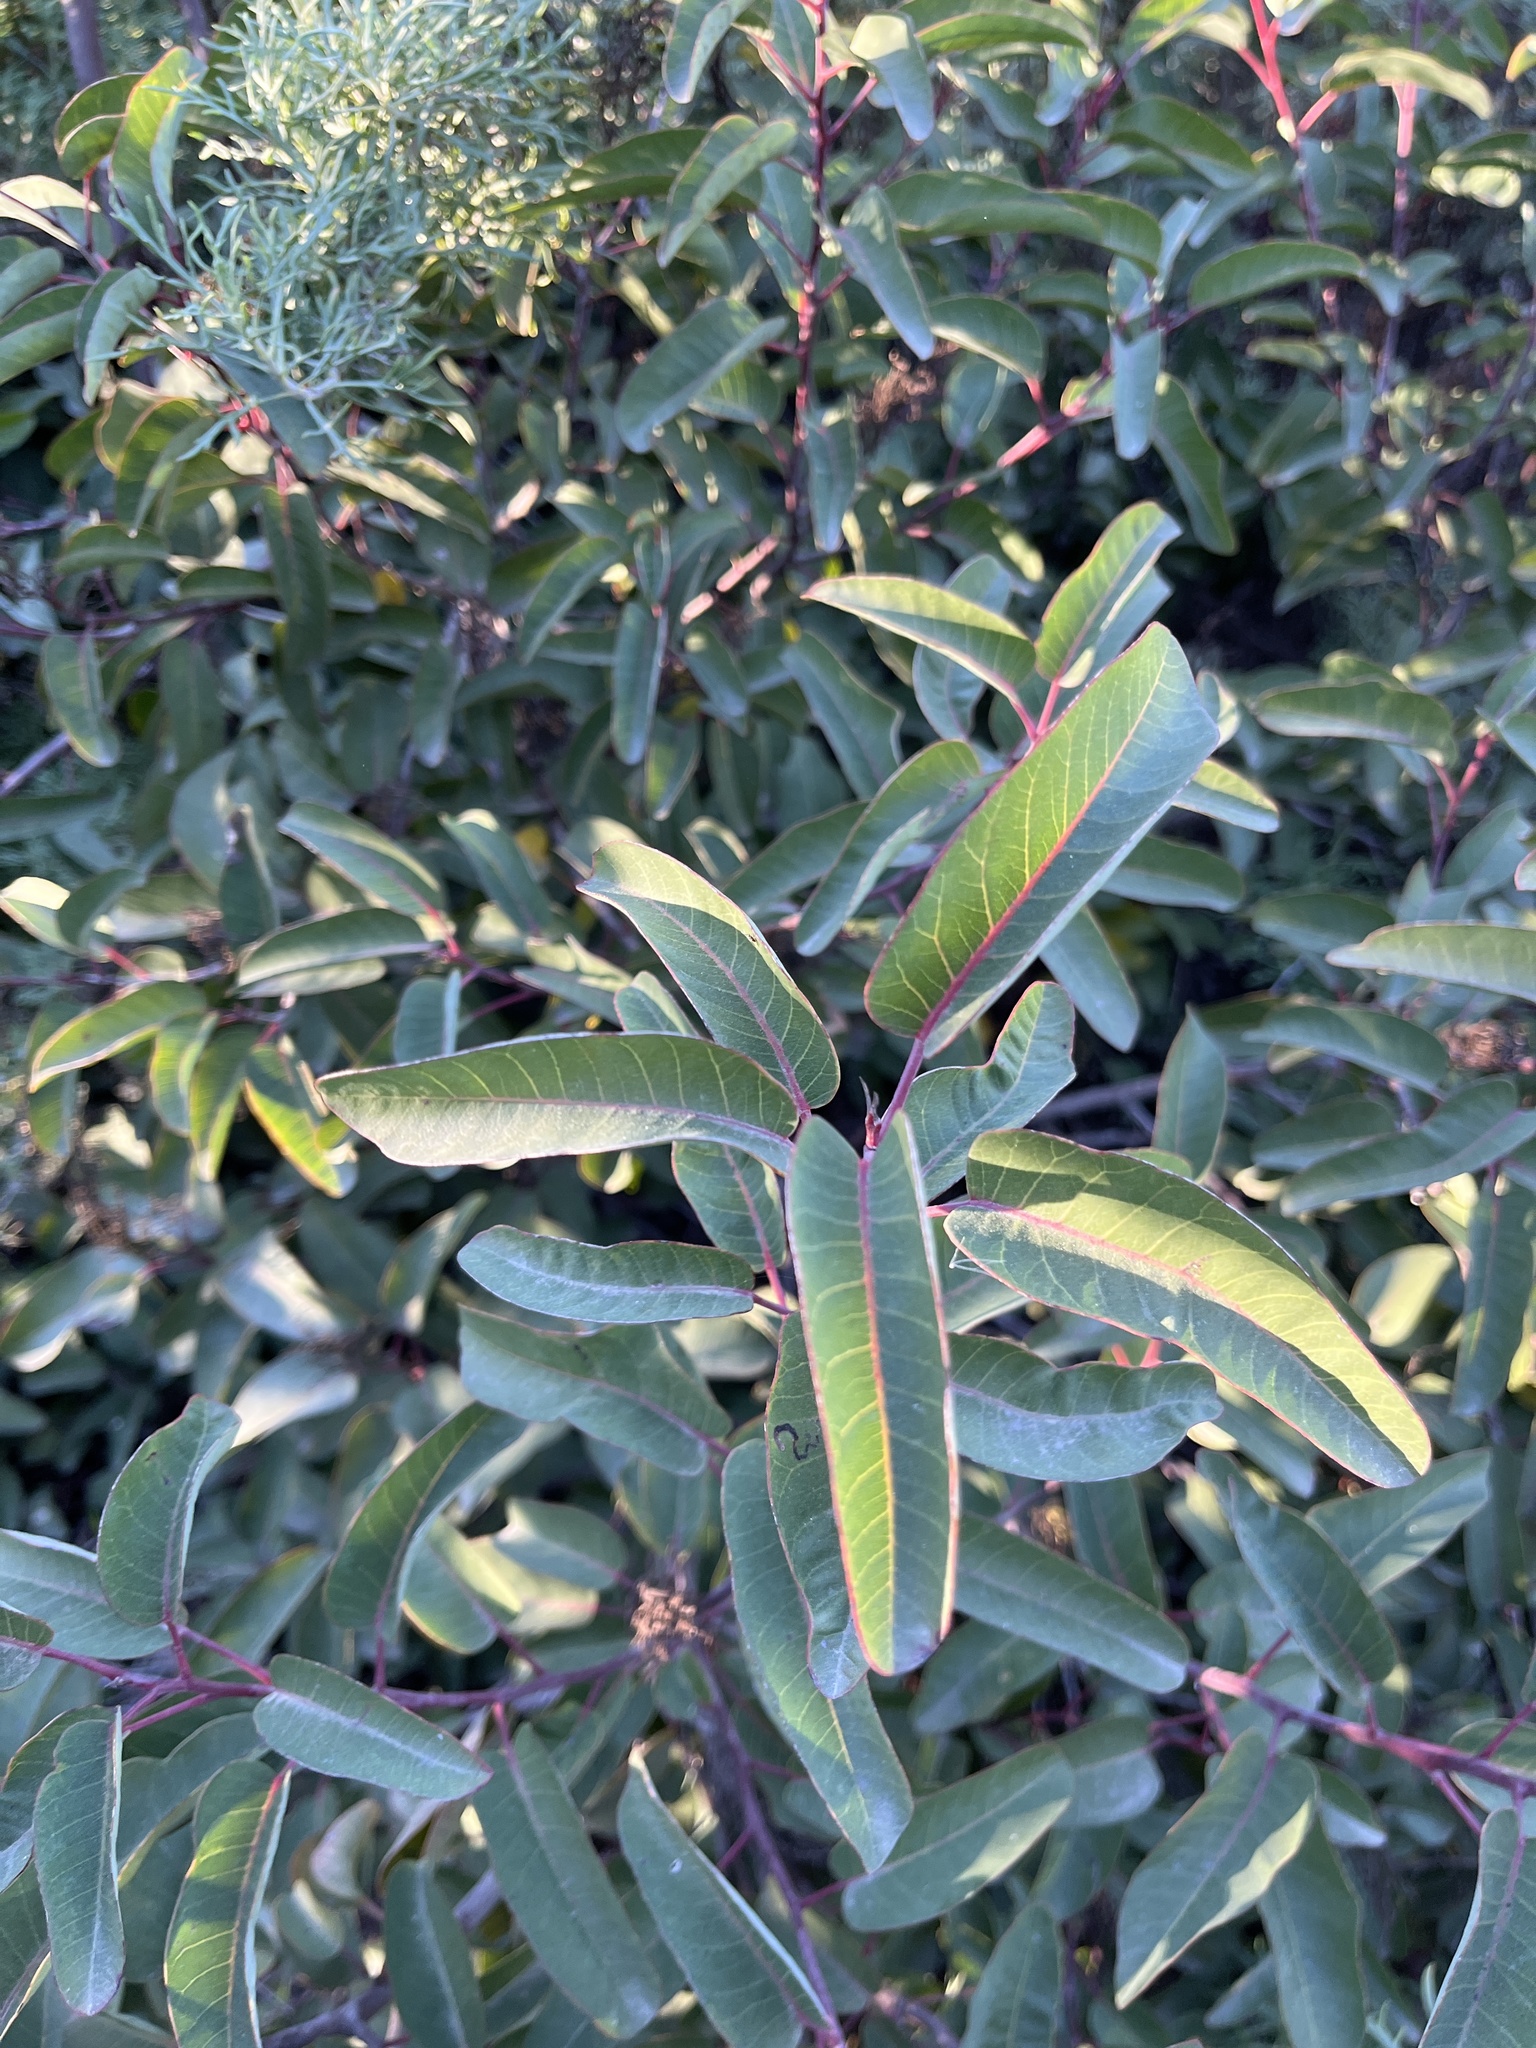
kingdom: Plantae
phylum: Tracheophyta
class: Magnoliopsida
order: Sapindales
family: Anacardiaceae
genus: Malosma
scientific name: Malosma laurina
